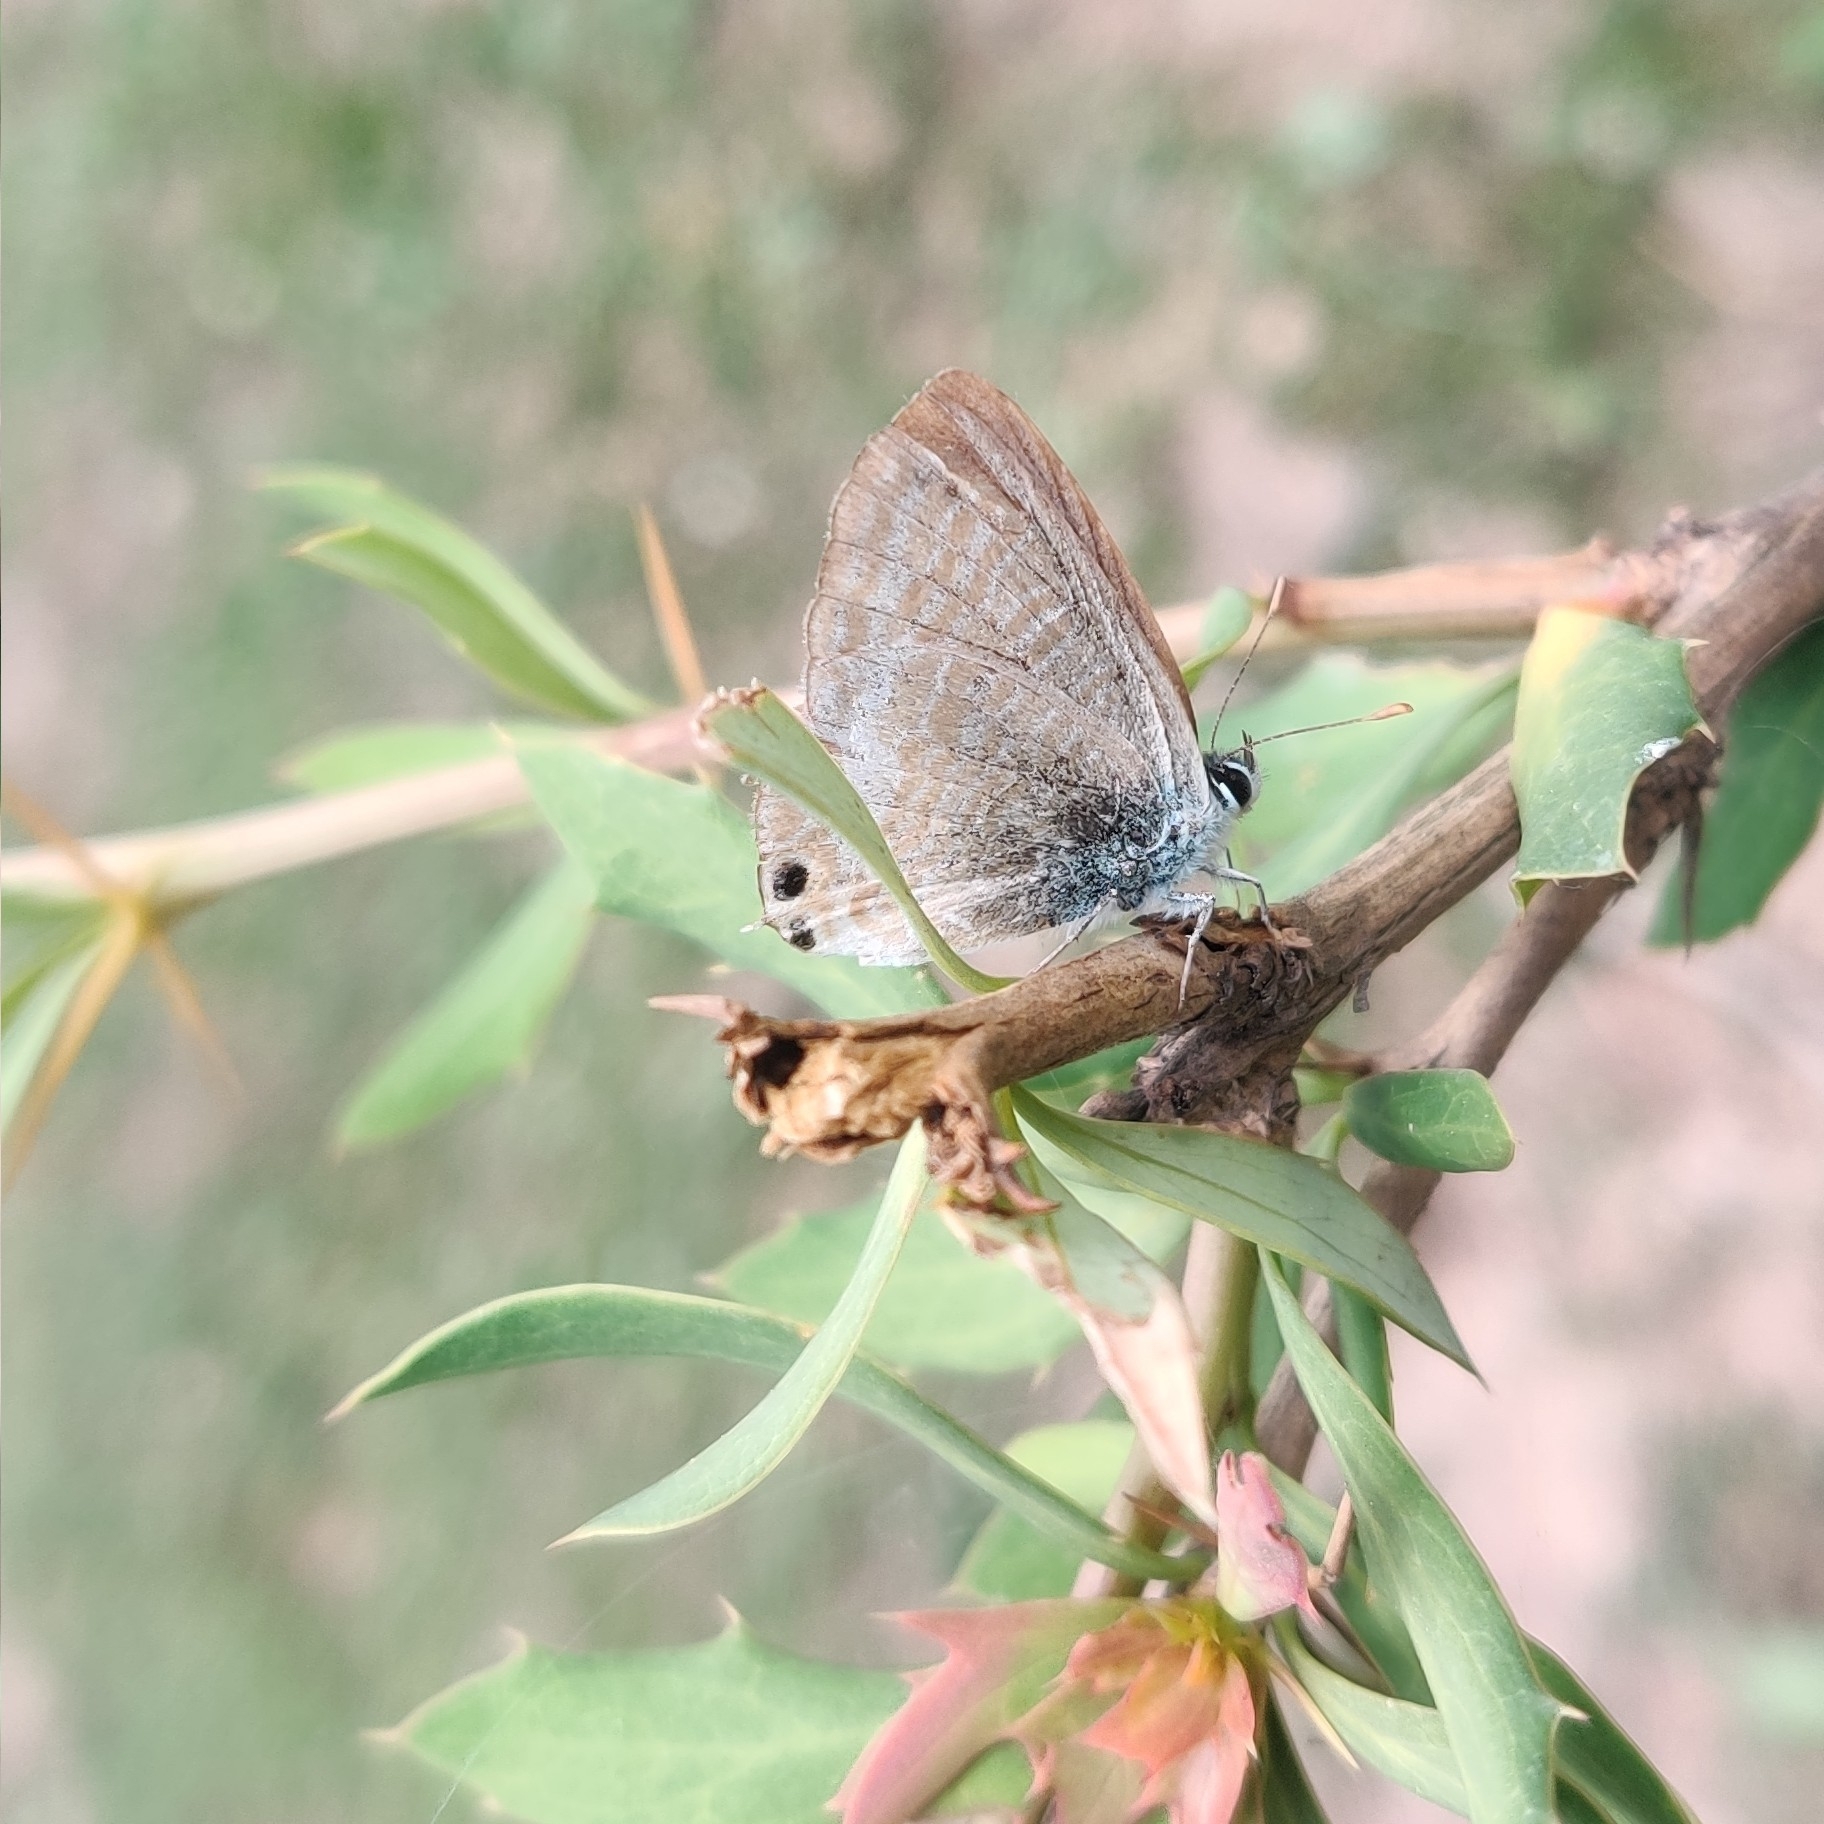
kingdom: Animalia
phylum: Arthropoda
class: Insecta
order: Lepidoptera
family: Lycaenidae
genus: Lampides
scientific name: Lampides boeticus
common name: Long-tailed blue
